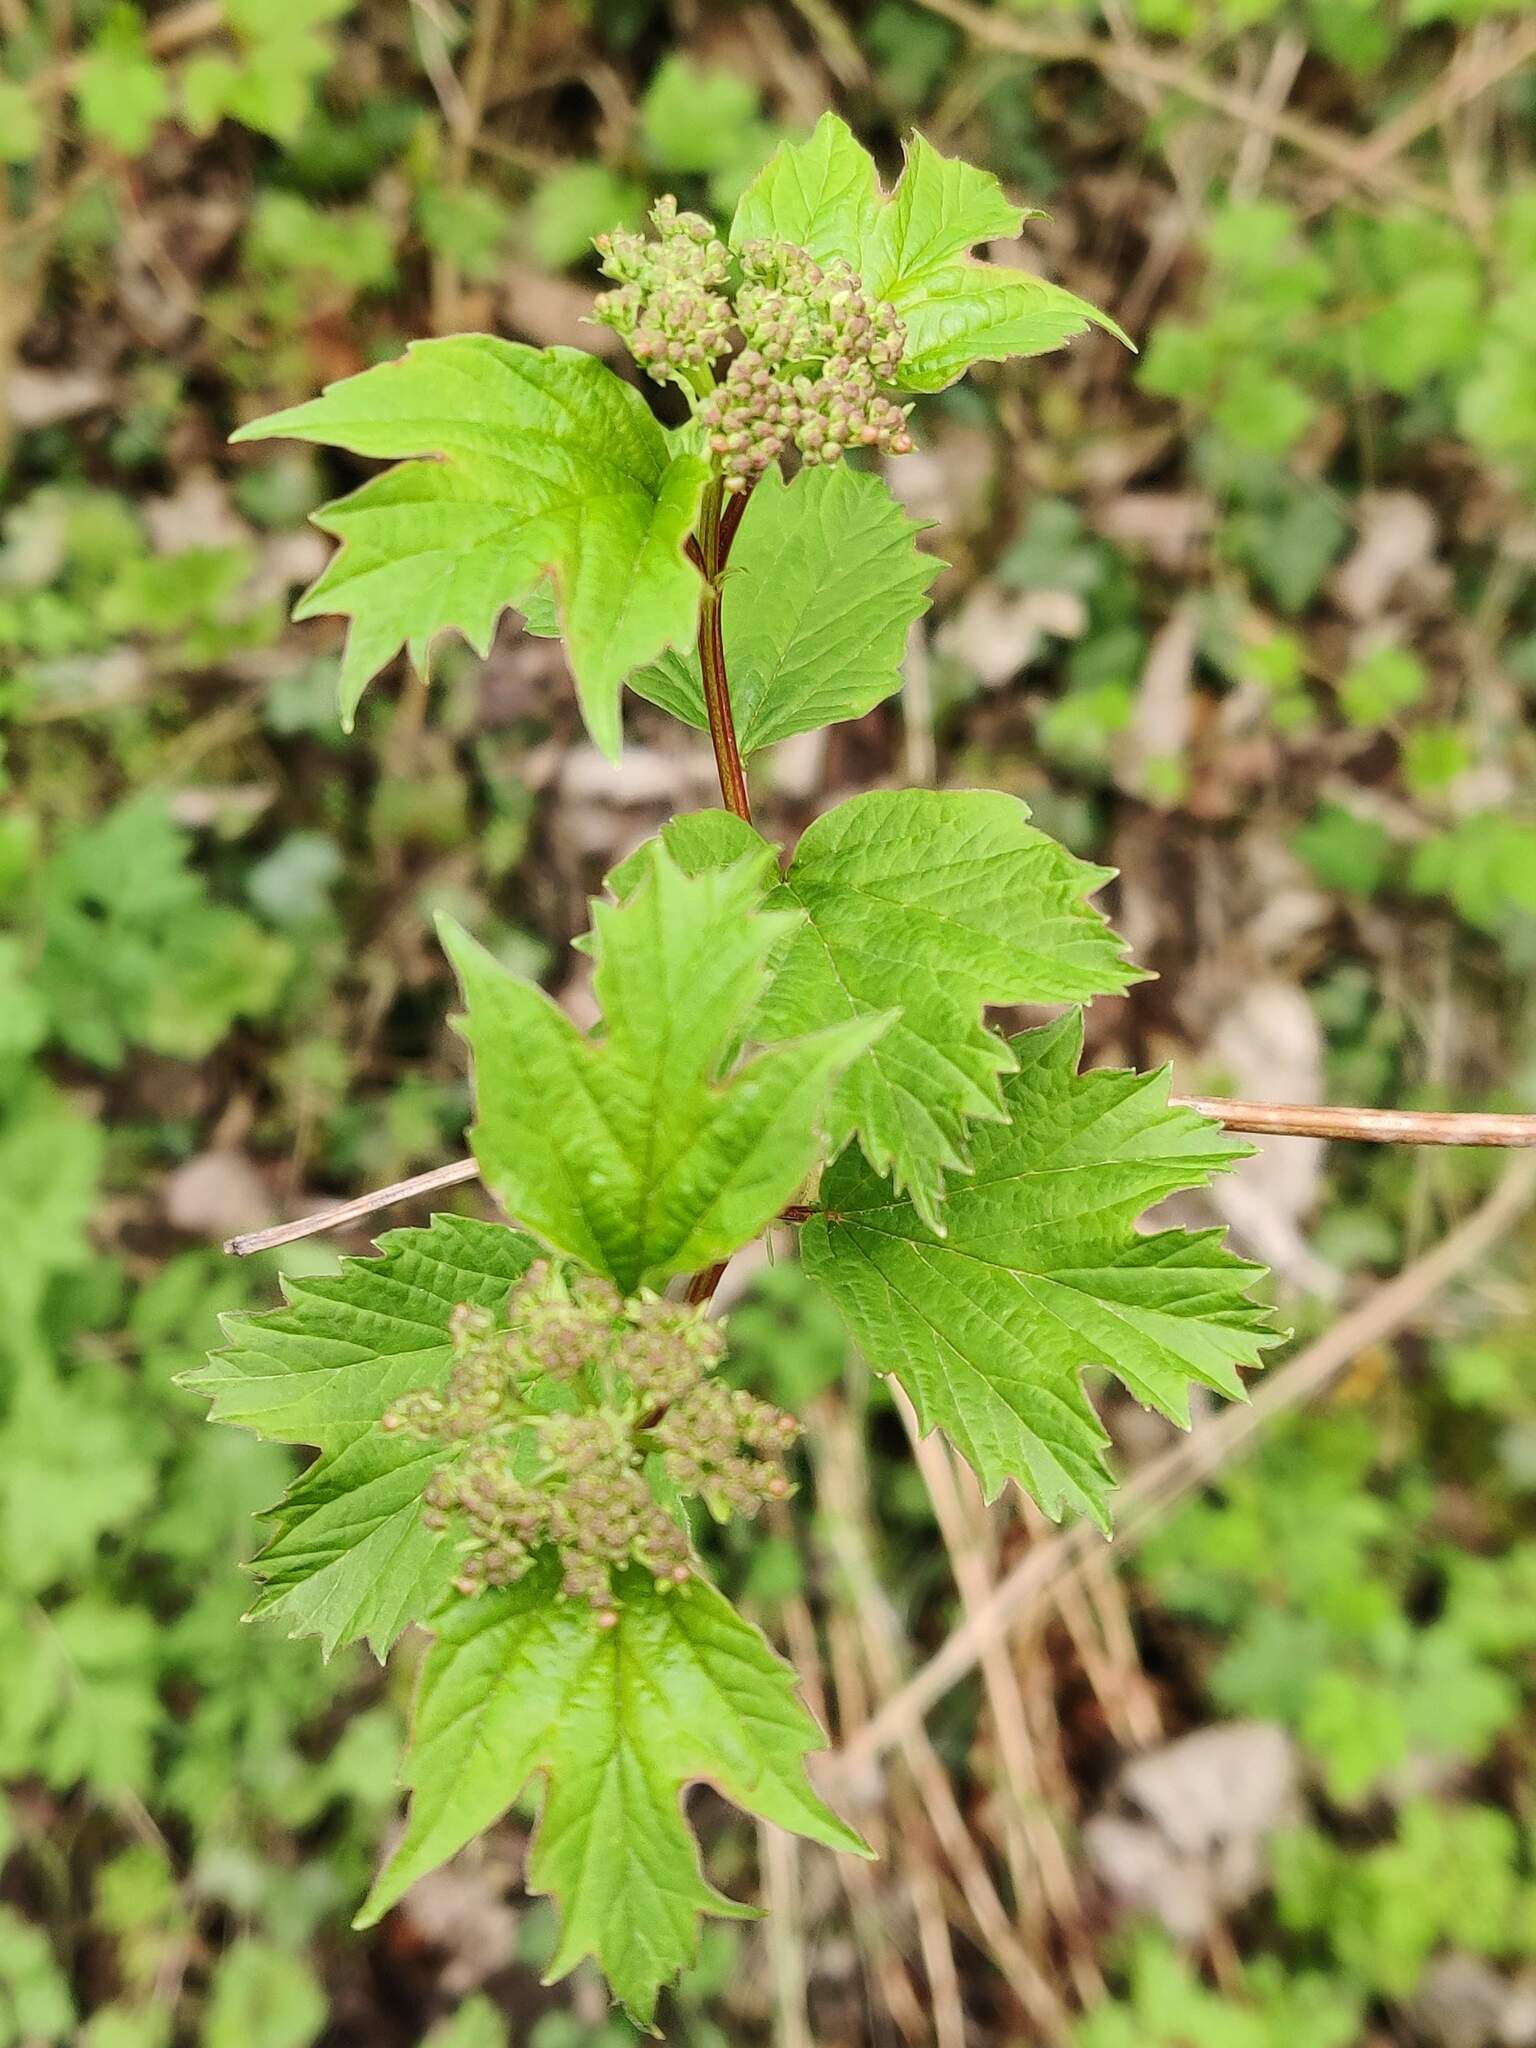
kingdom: Plantae
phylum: Tracheophyta
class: Magnoliopsida
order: Dipsacales
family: Viburnaceae
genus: Viburnum
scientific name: Viburnum opulus
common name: Guelder-rose
